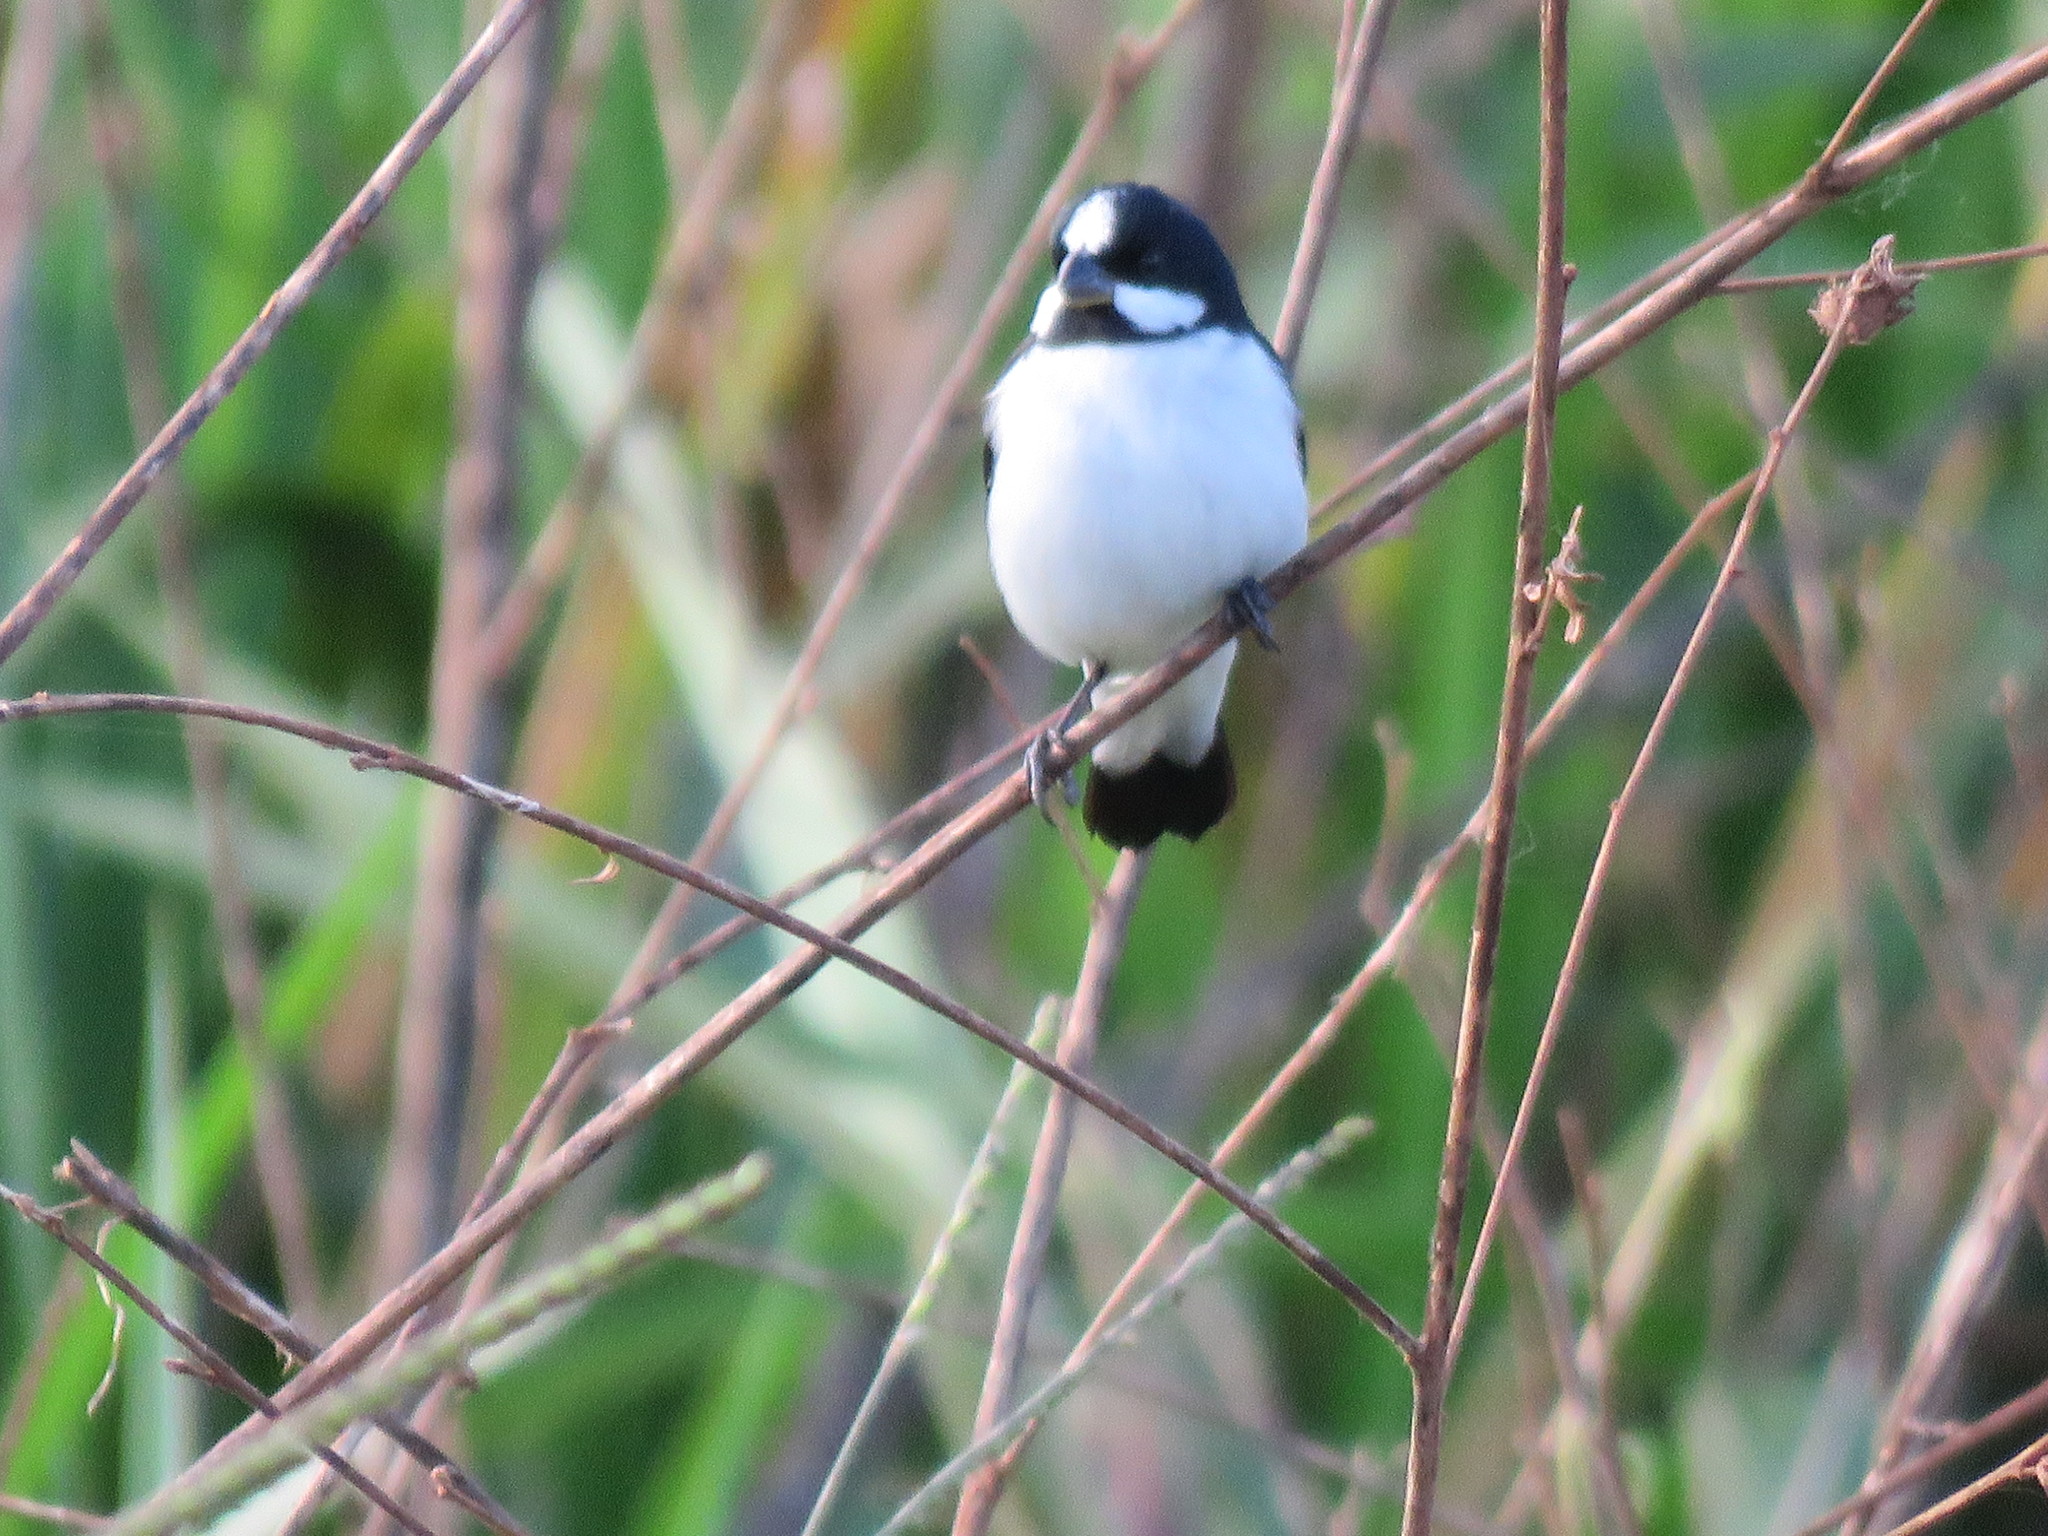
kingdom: Animalia
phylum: Chordata
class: Aves
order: Passeriformes
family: Thraupidae
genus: Sporophila
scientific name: Sporophila lineola
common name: Lined seedeater
